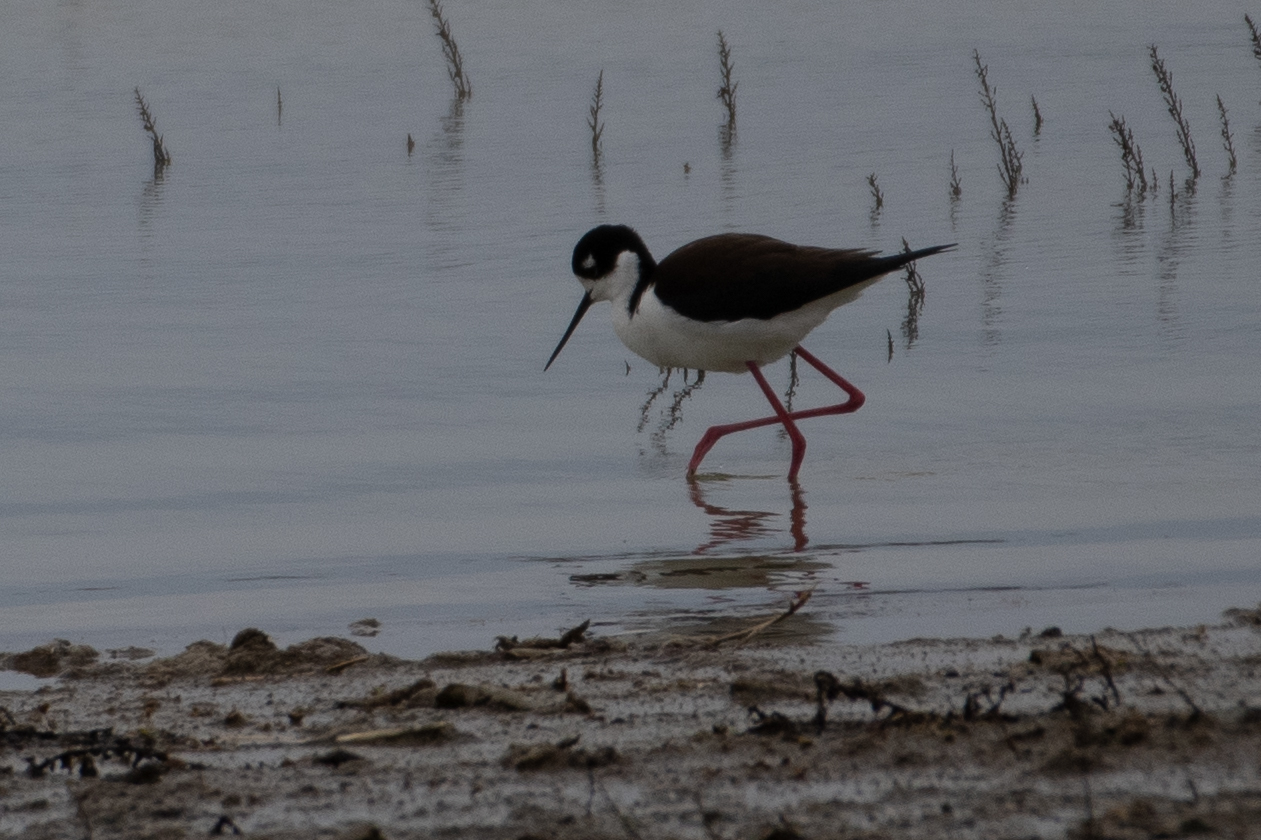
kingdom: Animalia
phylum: Chordata
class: Aves
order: Charadriiformes
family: Recurvirostridae
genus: Himantopus
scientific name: Himantopus mexicanus
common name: Black-necked stilt
